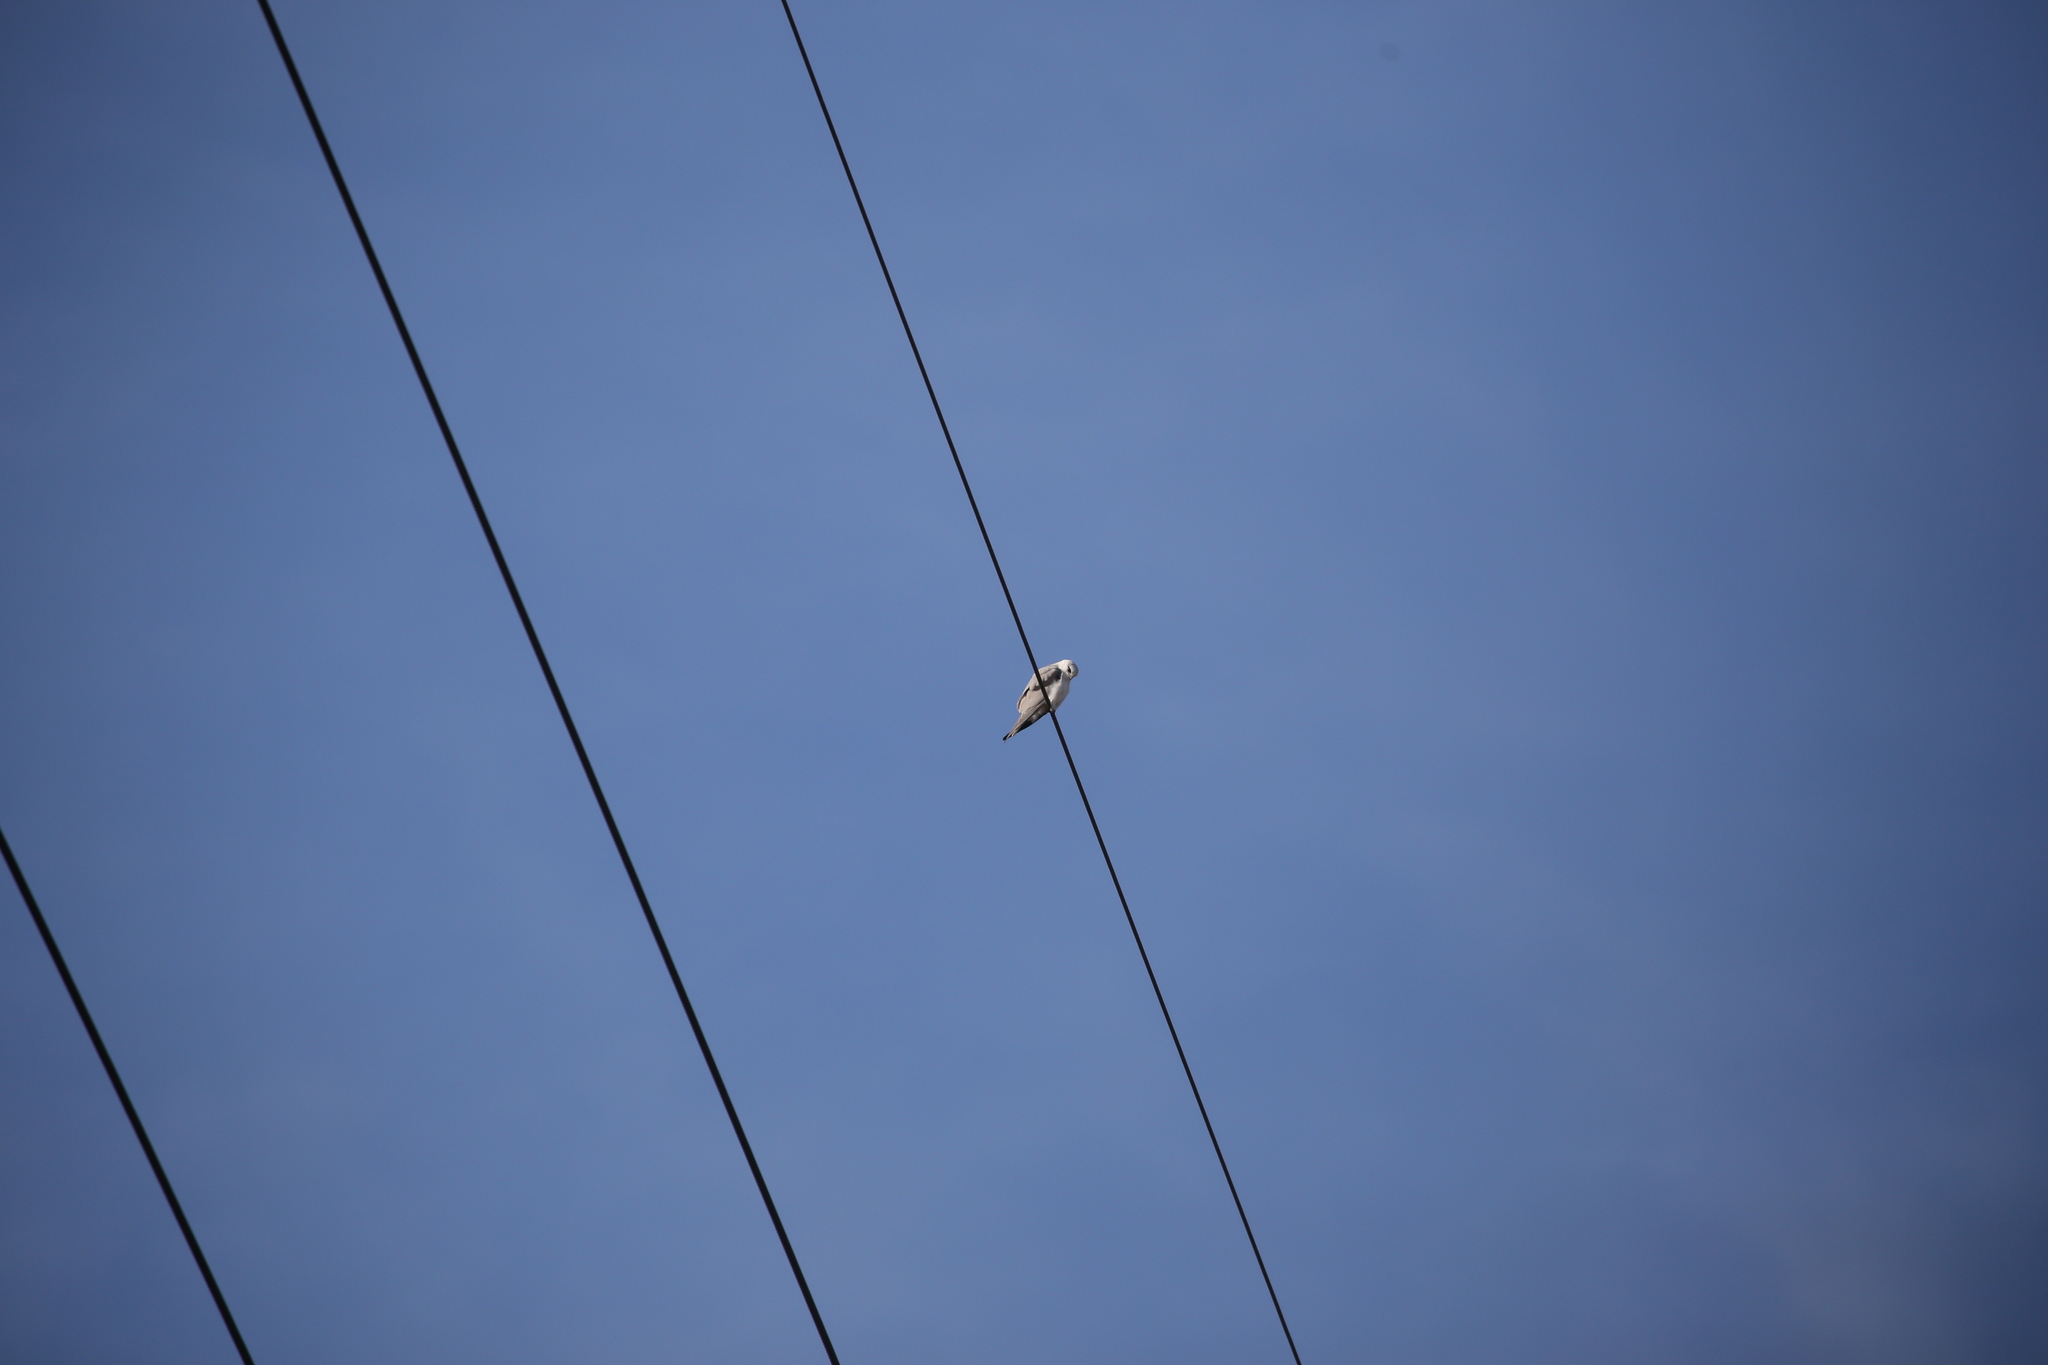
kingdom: Animalia
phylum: Chordata
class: Aves
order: Accipitriformes
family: Accipitridae
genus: Elanus
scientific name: Elanus axillaris
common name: Black-shouldered kite
